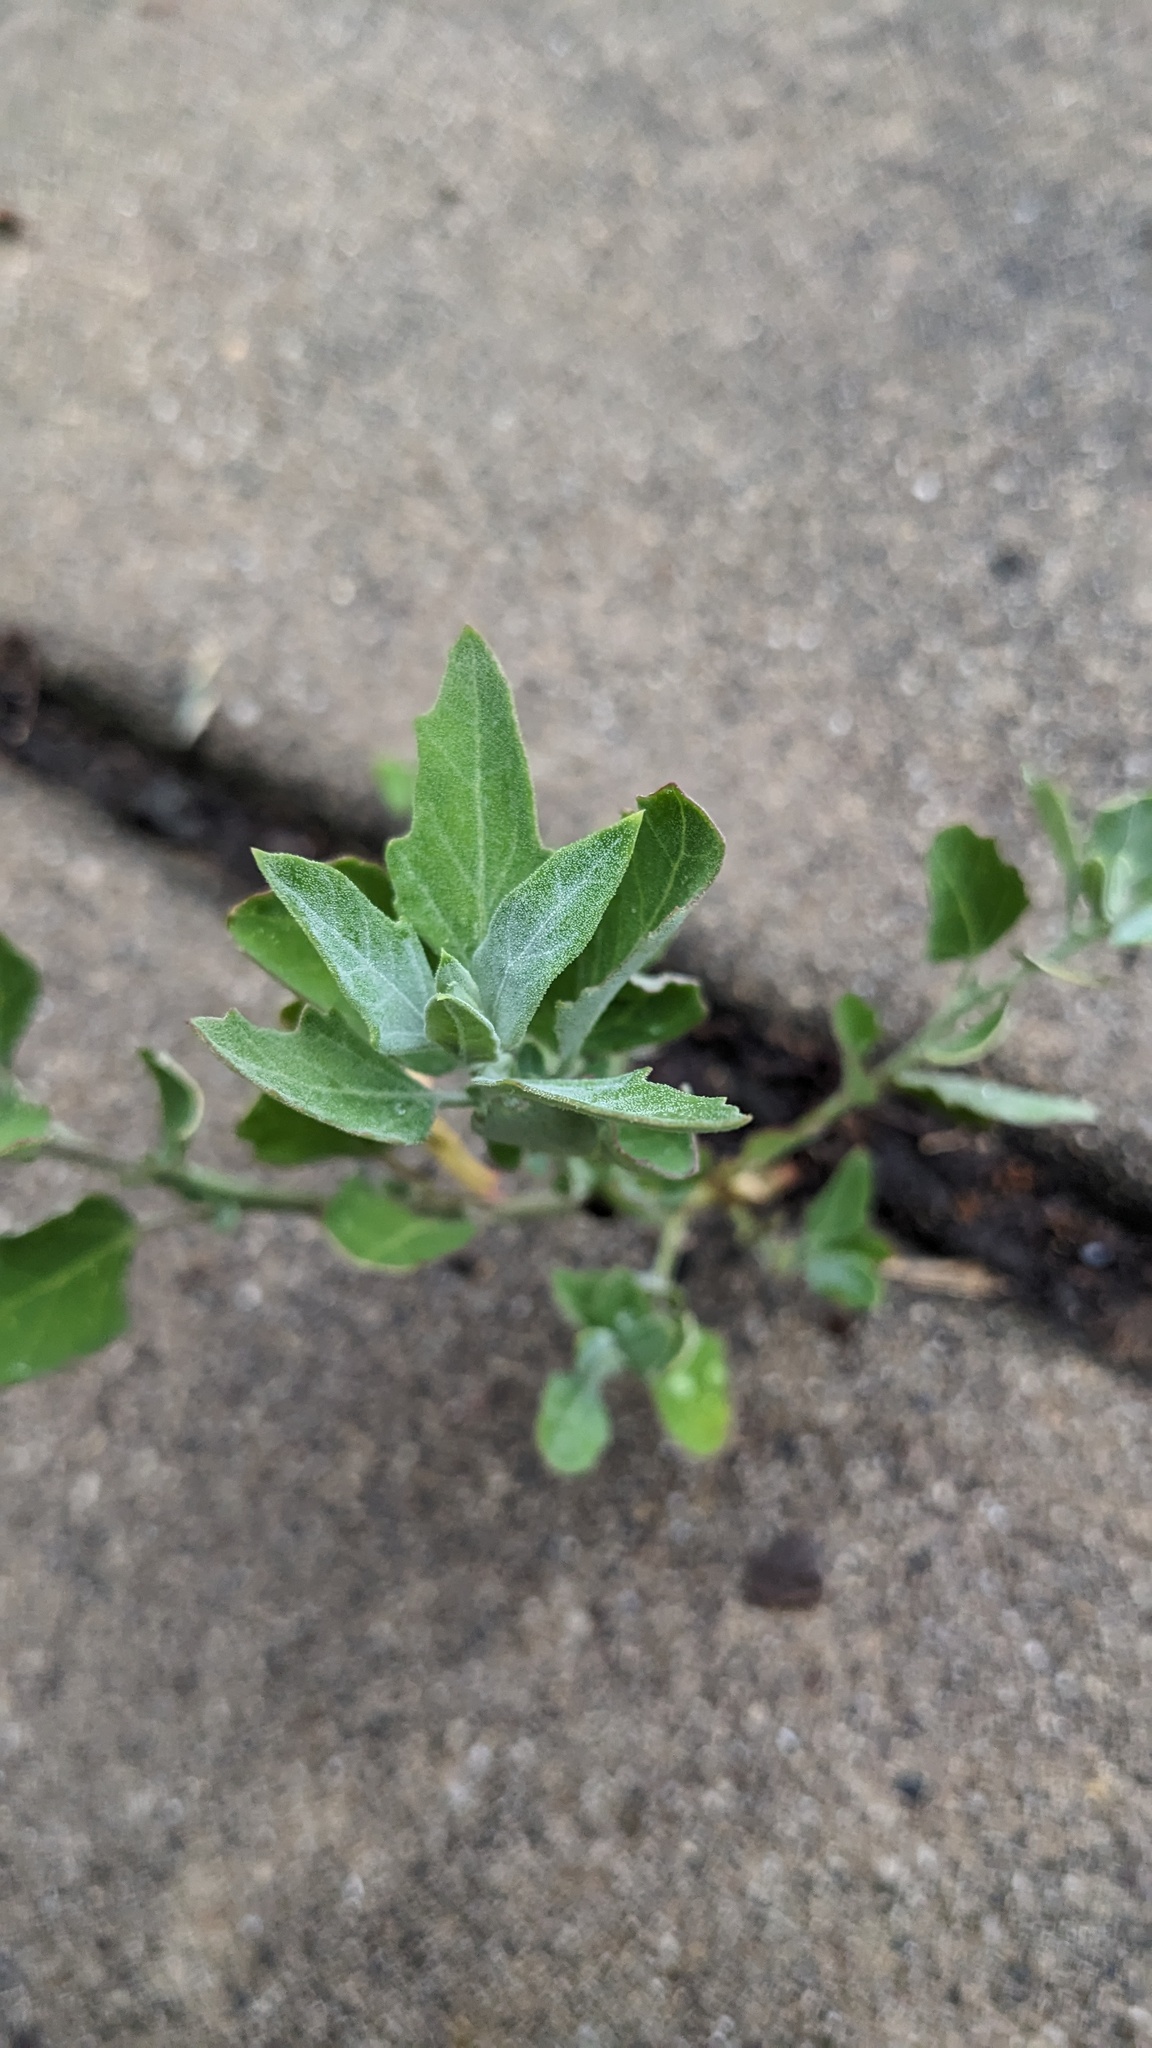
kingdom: Plantae
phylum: Tracheophyta
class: Magnoliopsida
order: Caryophyllales
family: Amaranthaceae
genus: Chenopodium
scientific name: Chenopodium album
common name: Fat-hen
